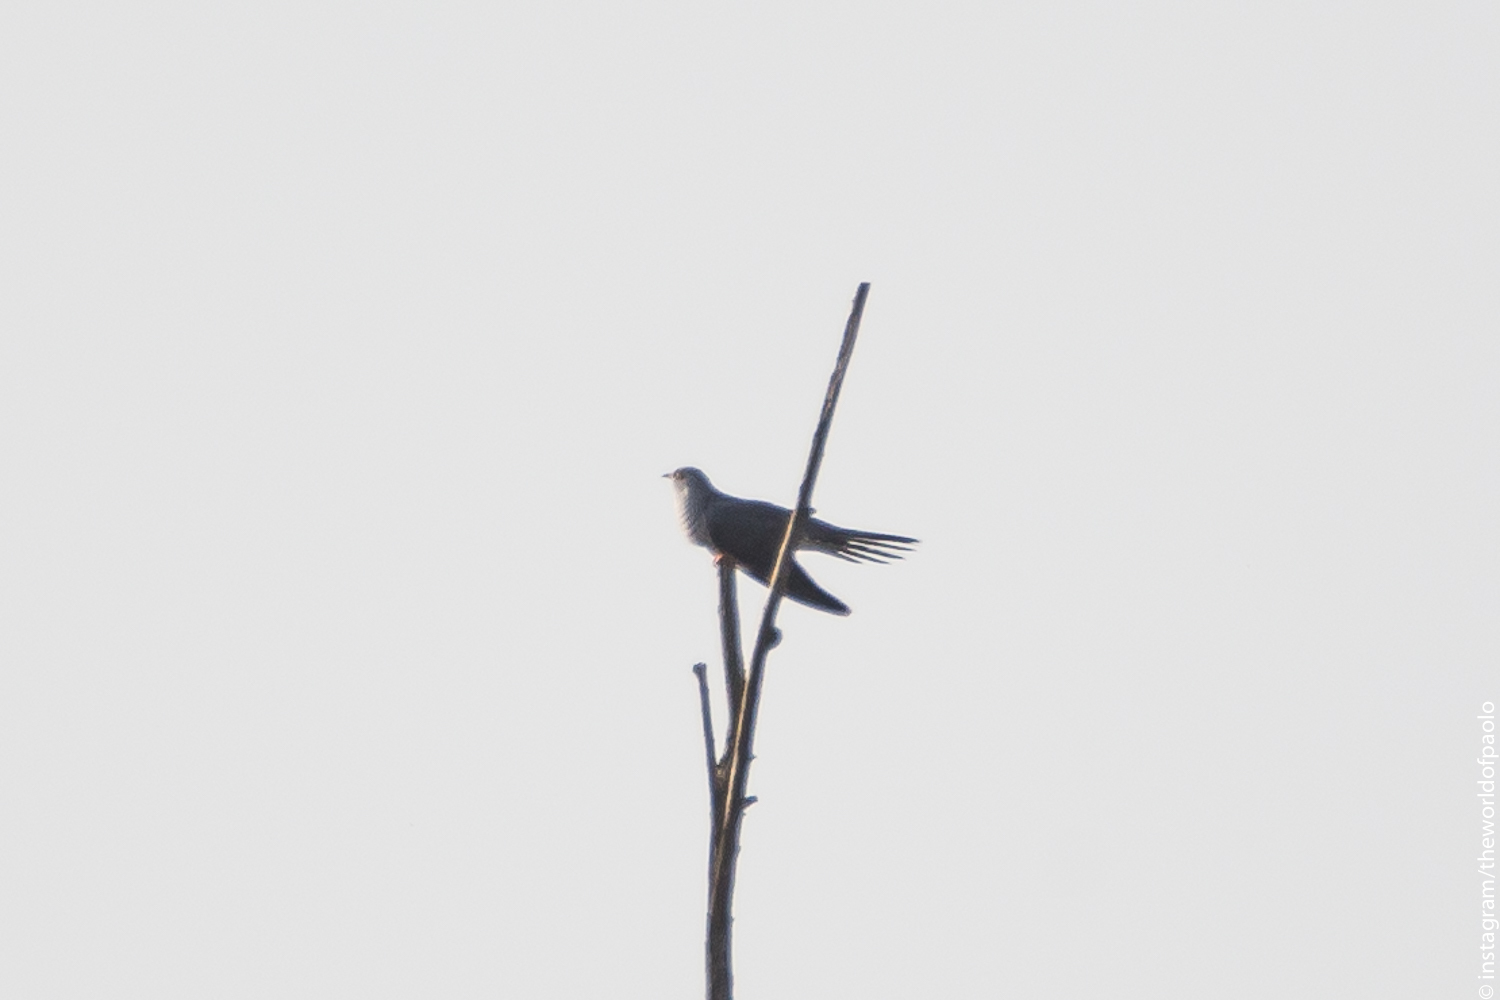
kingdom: Animalia
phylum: Chordata
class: Aves
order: Cuculiformes
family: Cuculidae
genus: Cuculus
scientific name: Cuculus canorus
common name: Common cuckoo
